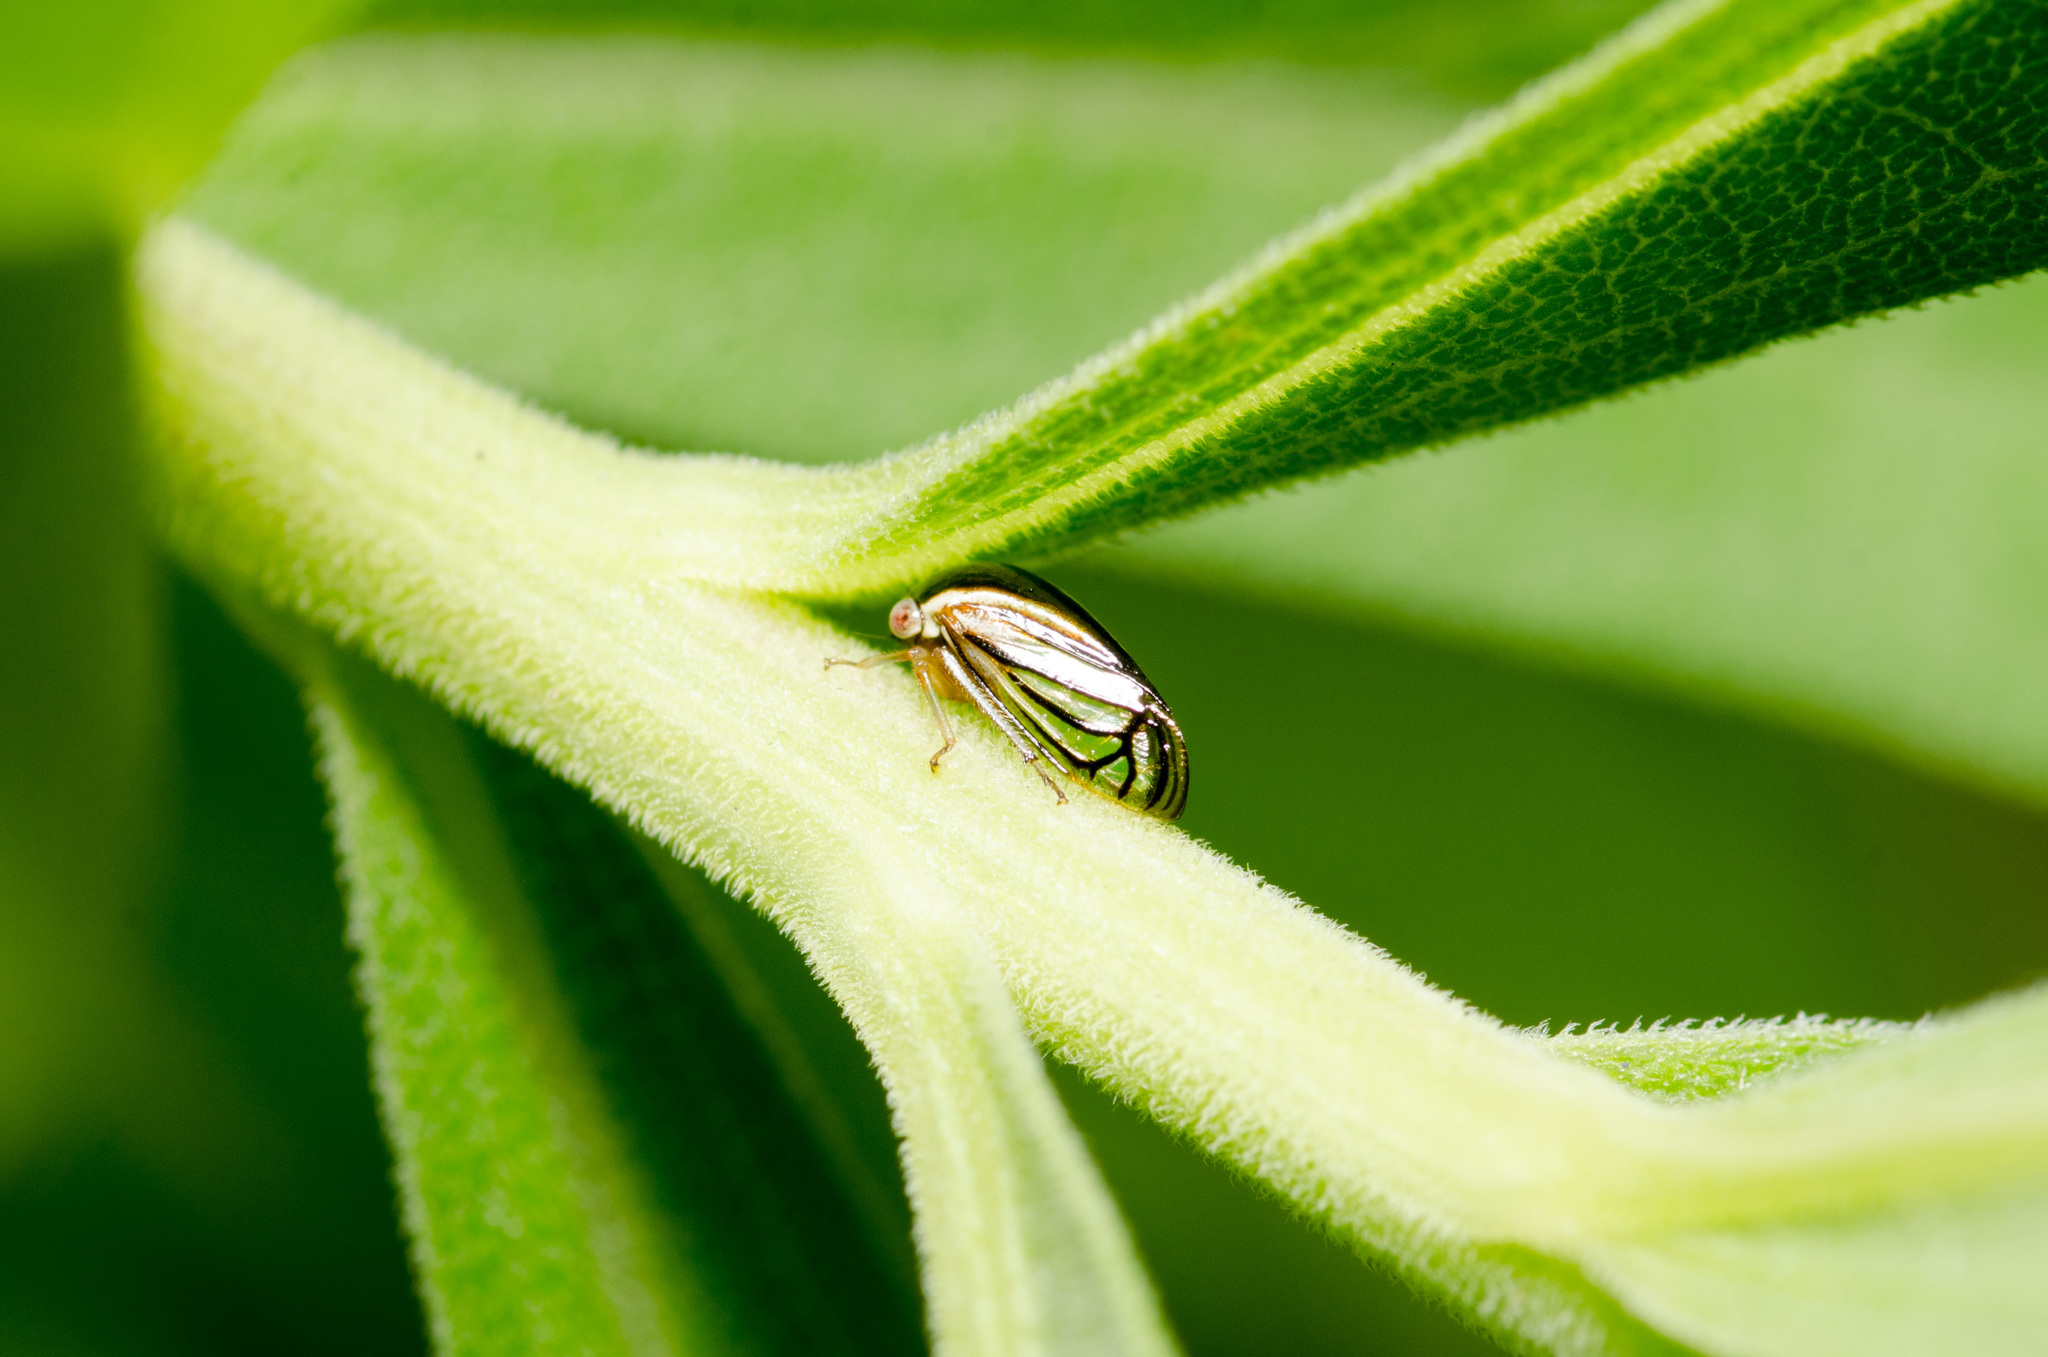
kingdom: Animalia
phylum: Arthropoda
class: Insecta
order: Hemiptera
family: Membracidae
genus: Acutalis
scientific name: Acutalis tartarea
